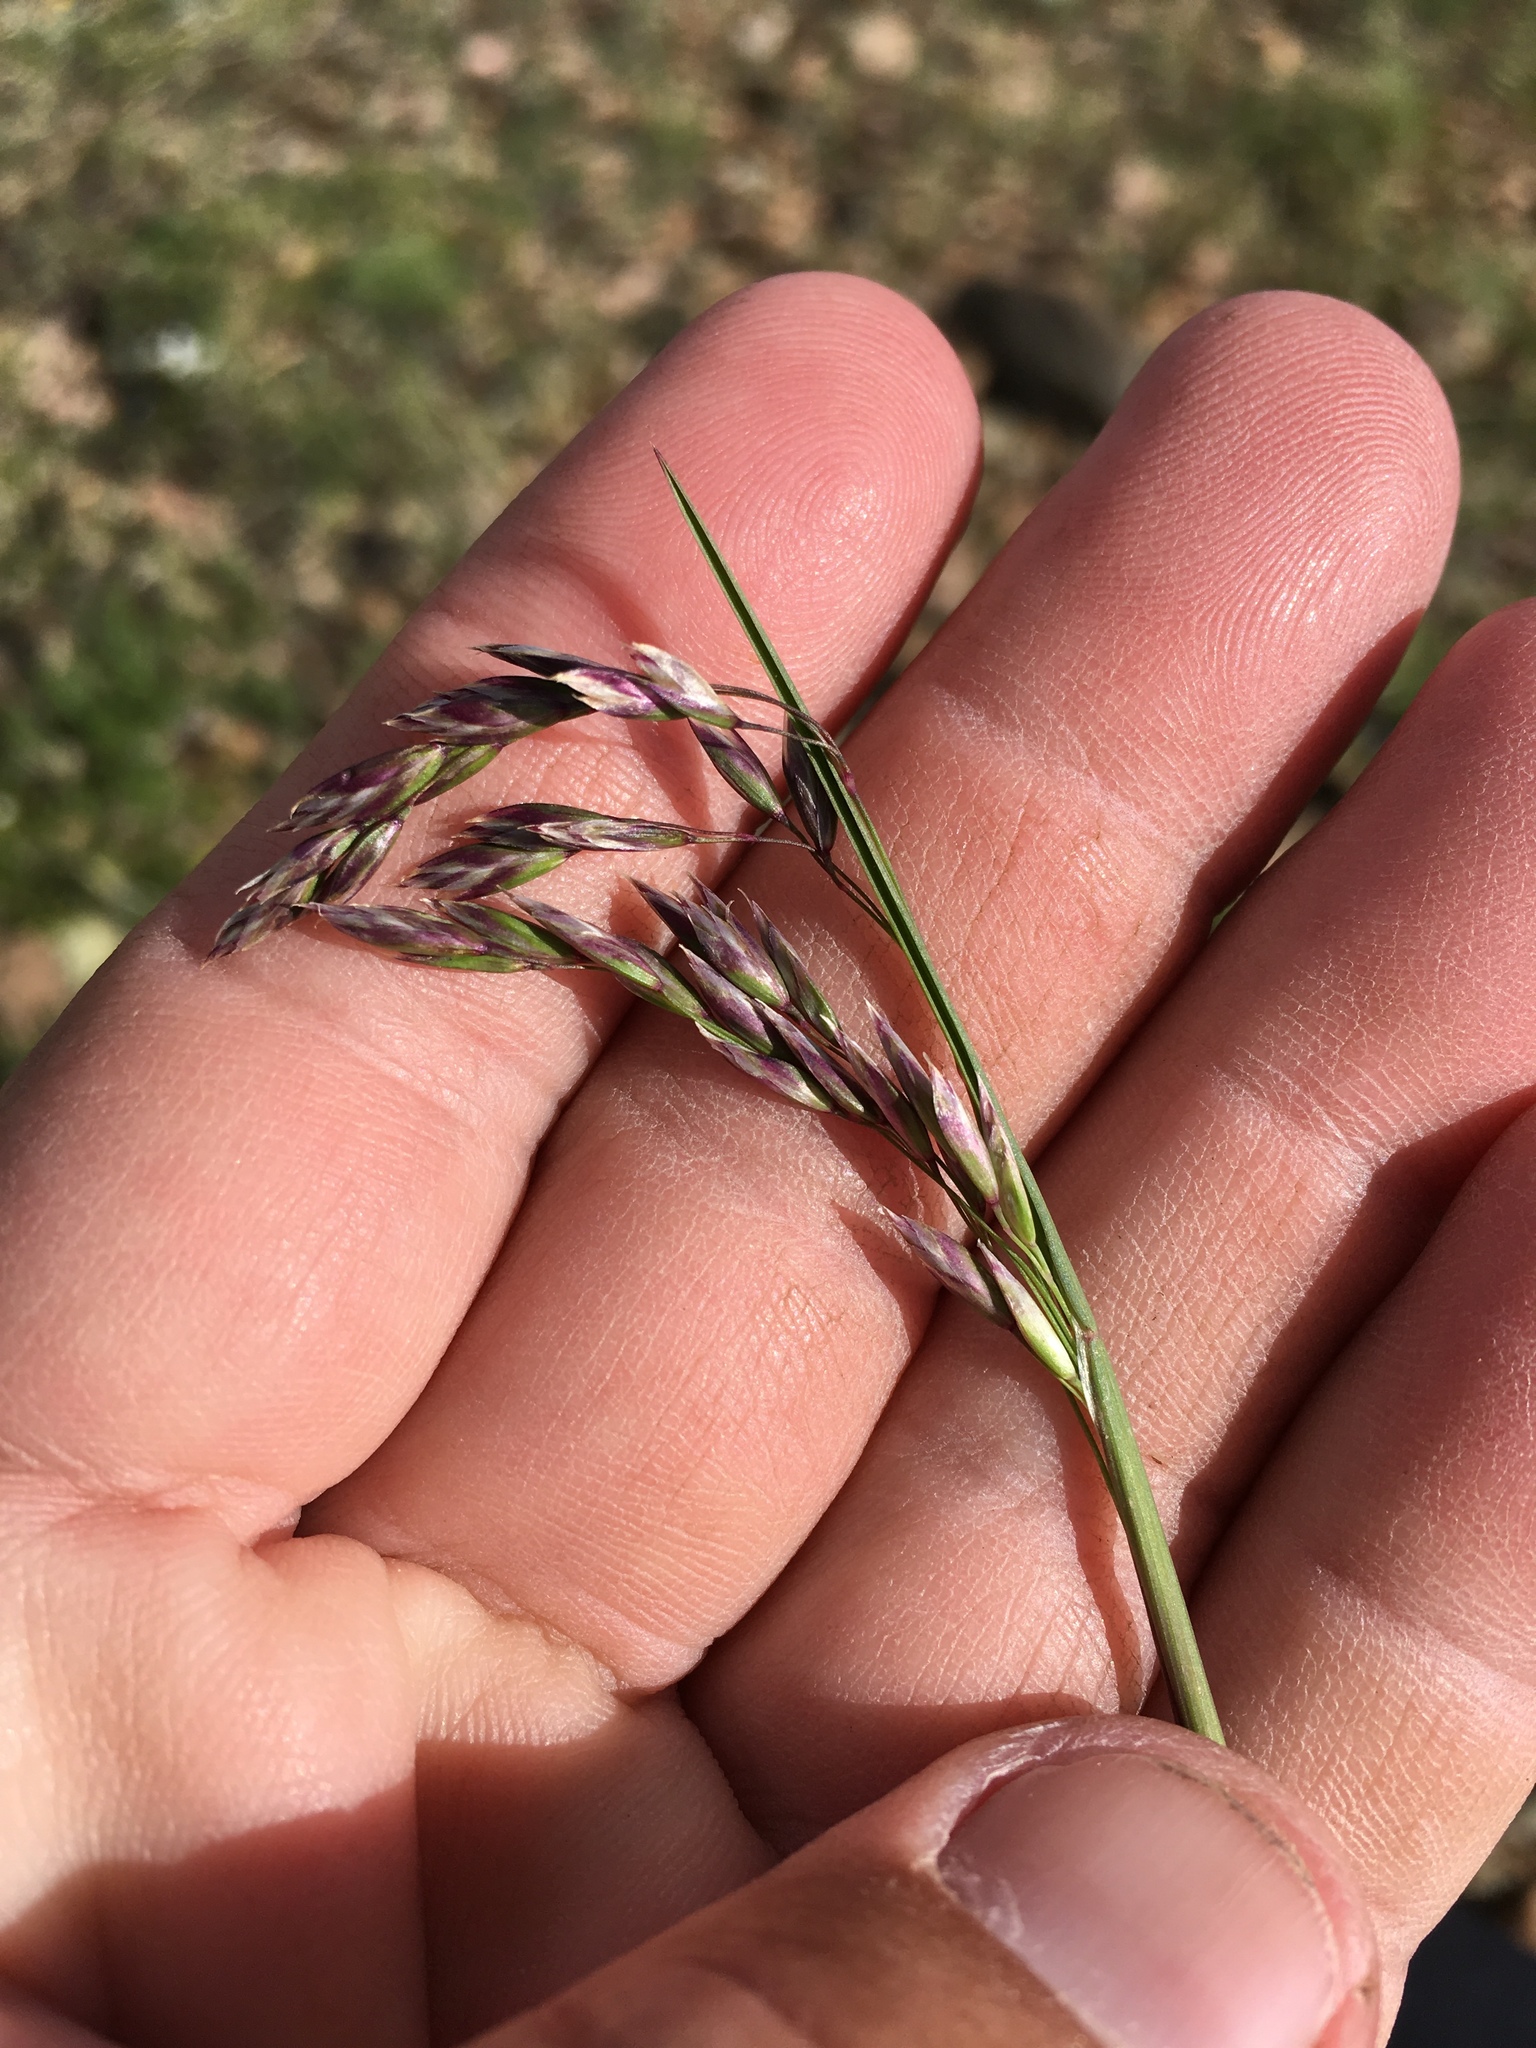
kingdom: Plantae
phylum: Tracheophyta
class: Liliopsida
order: Poales
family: Poaceae
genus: Poa
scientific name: Poa arctica
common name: Arctic bluegrass
